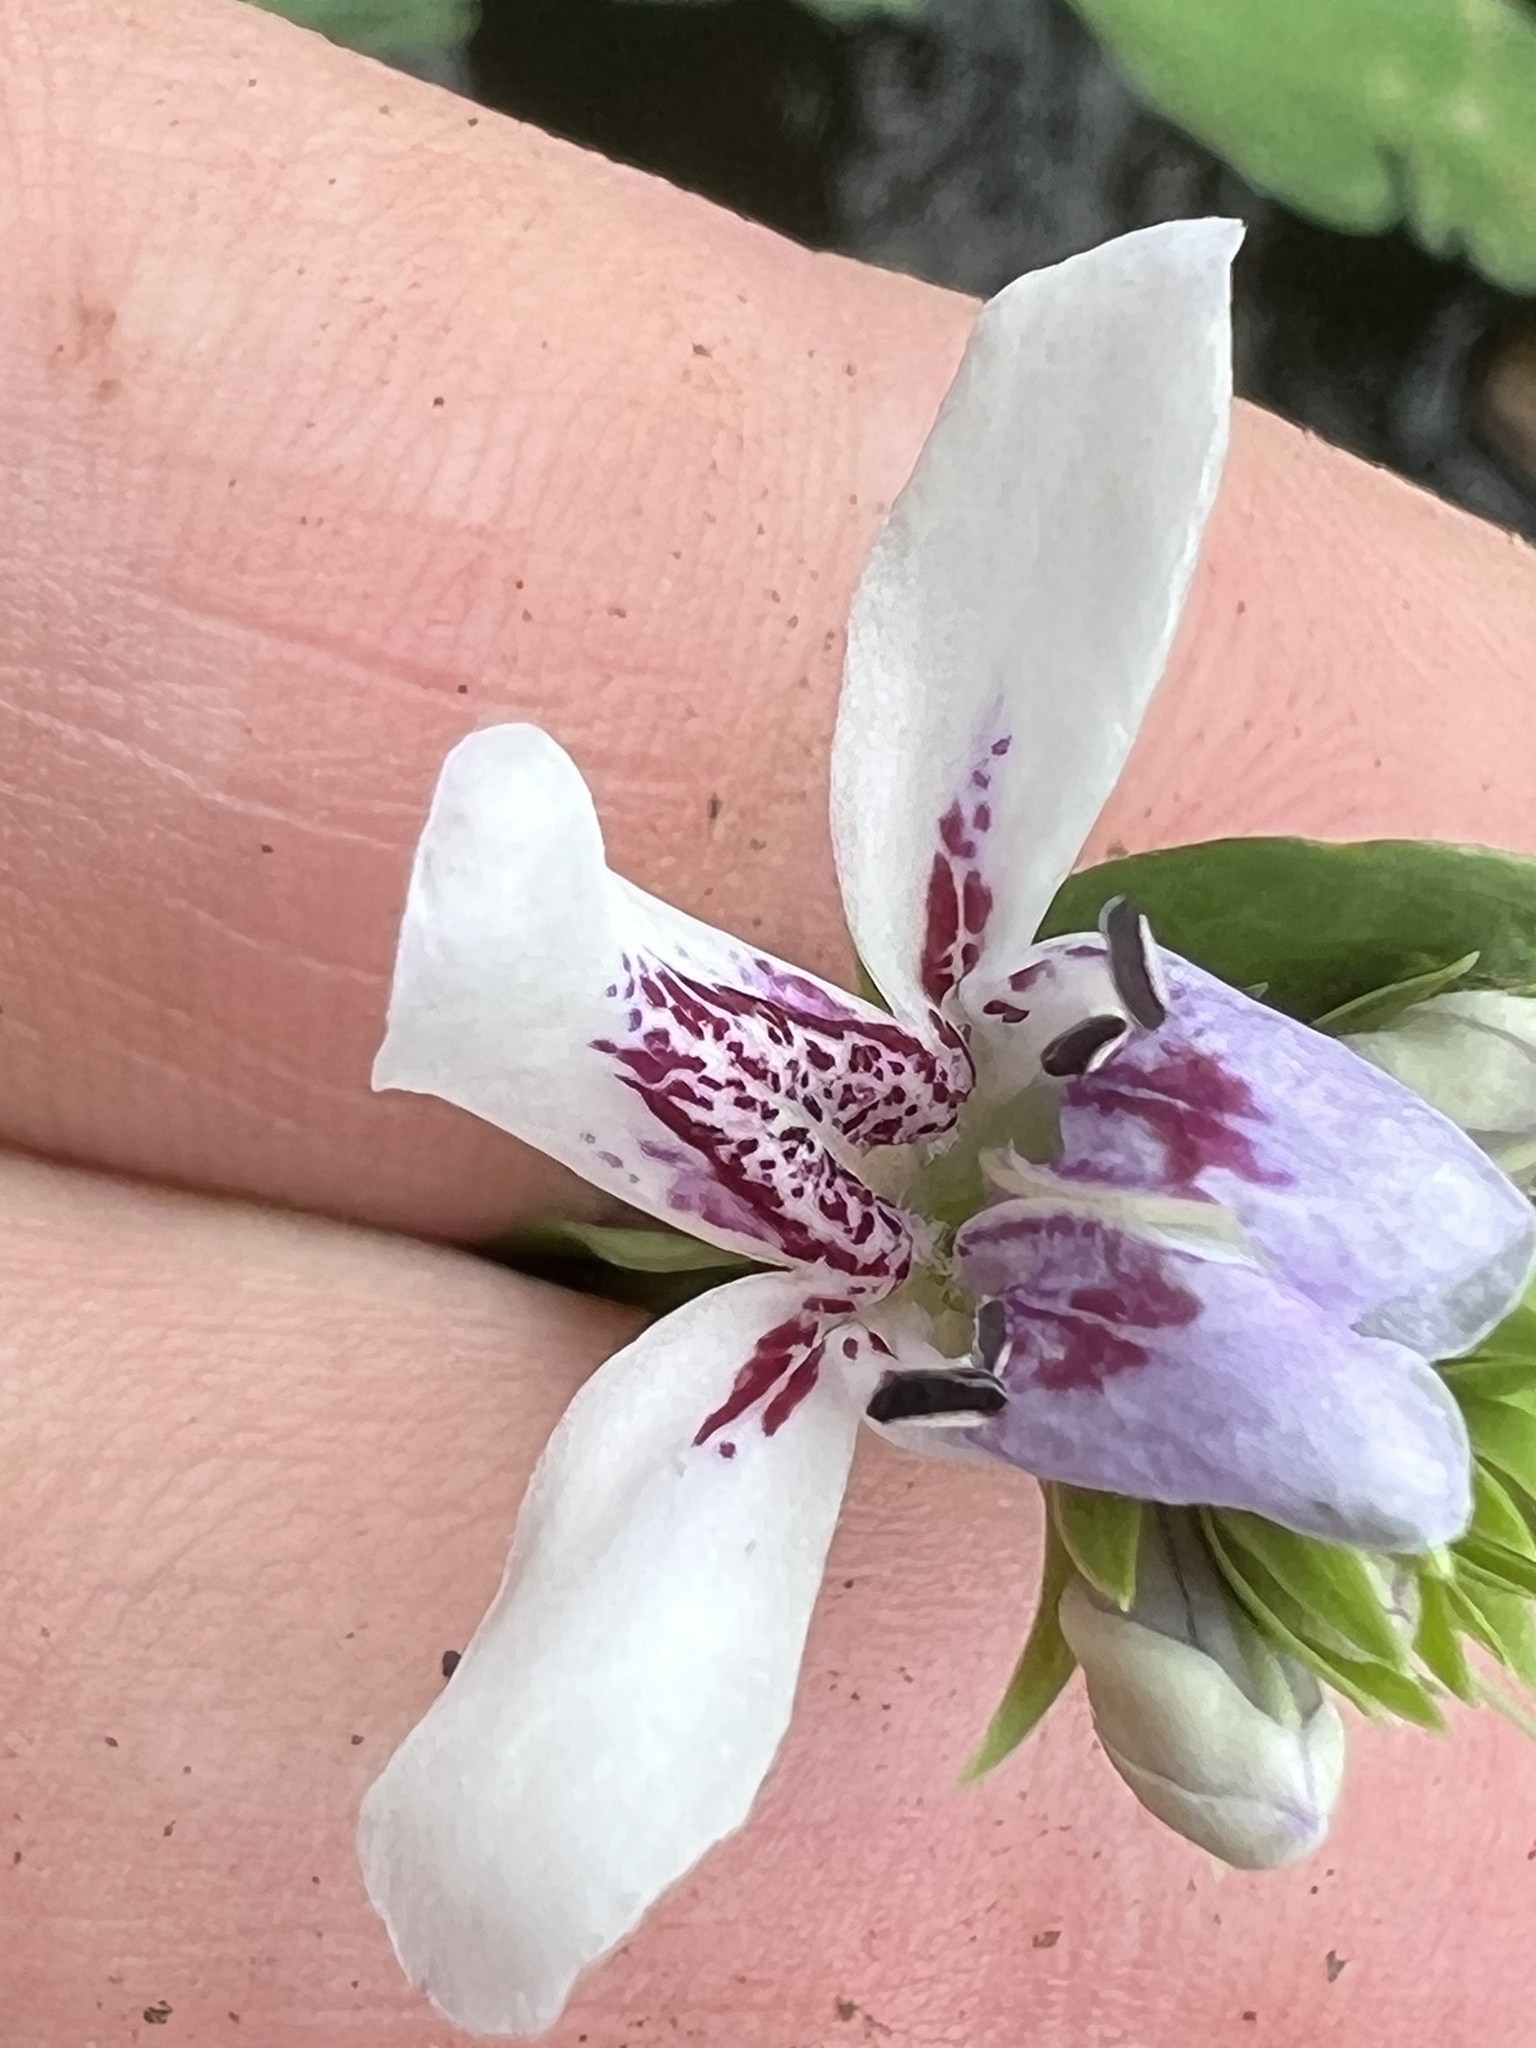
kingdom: Plantae
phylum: Tracheophyta
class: Magnoliopsida
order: Lamiales
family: Acanthaceae
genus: Dianthera
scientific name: Dianthera americana
